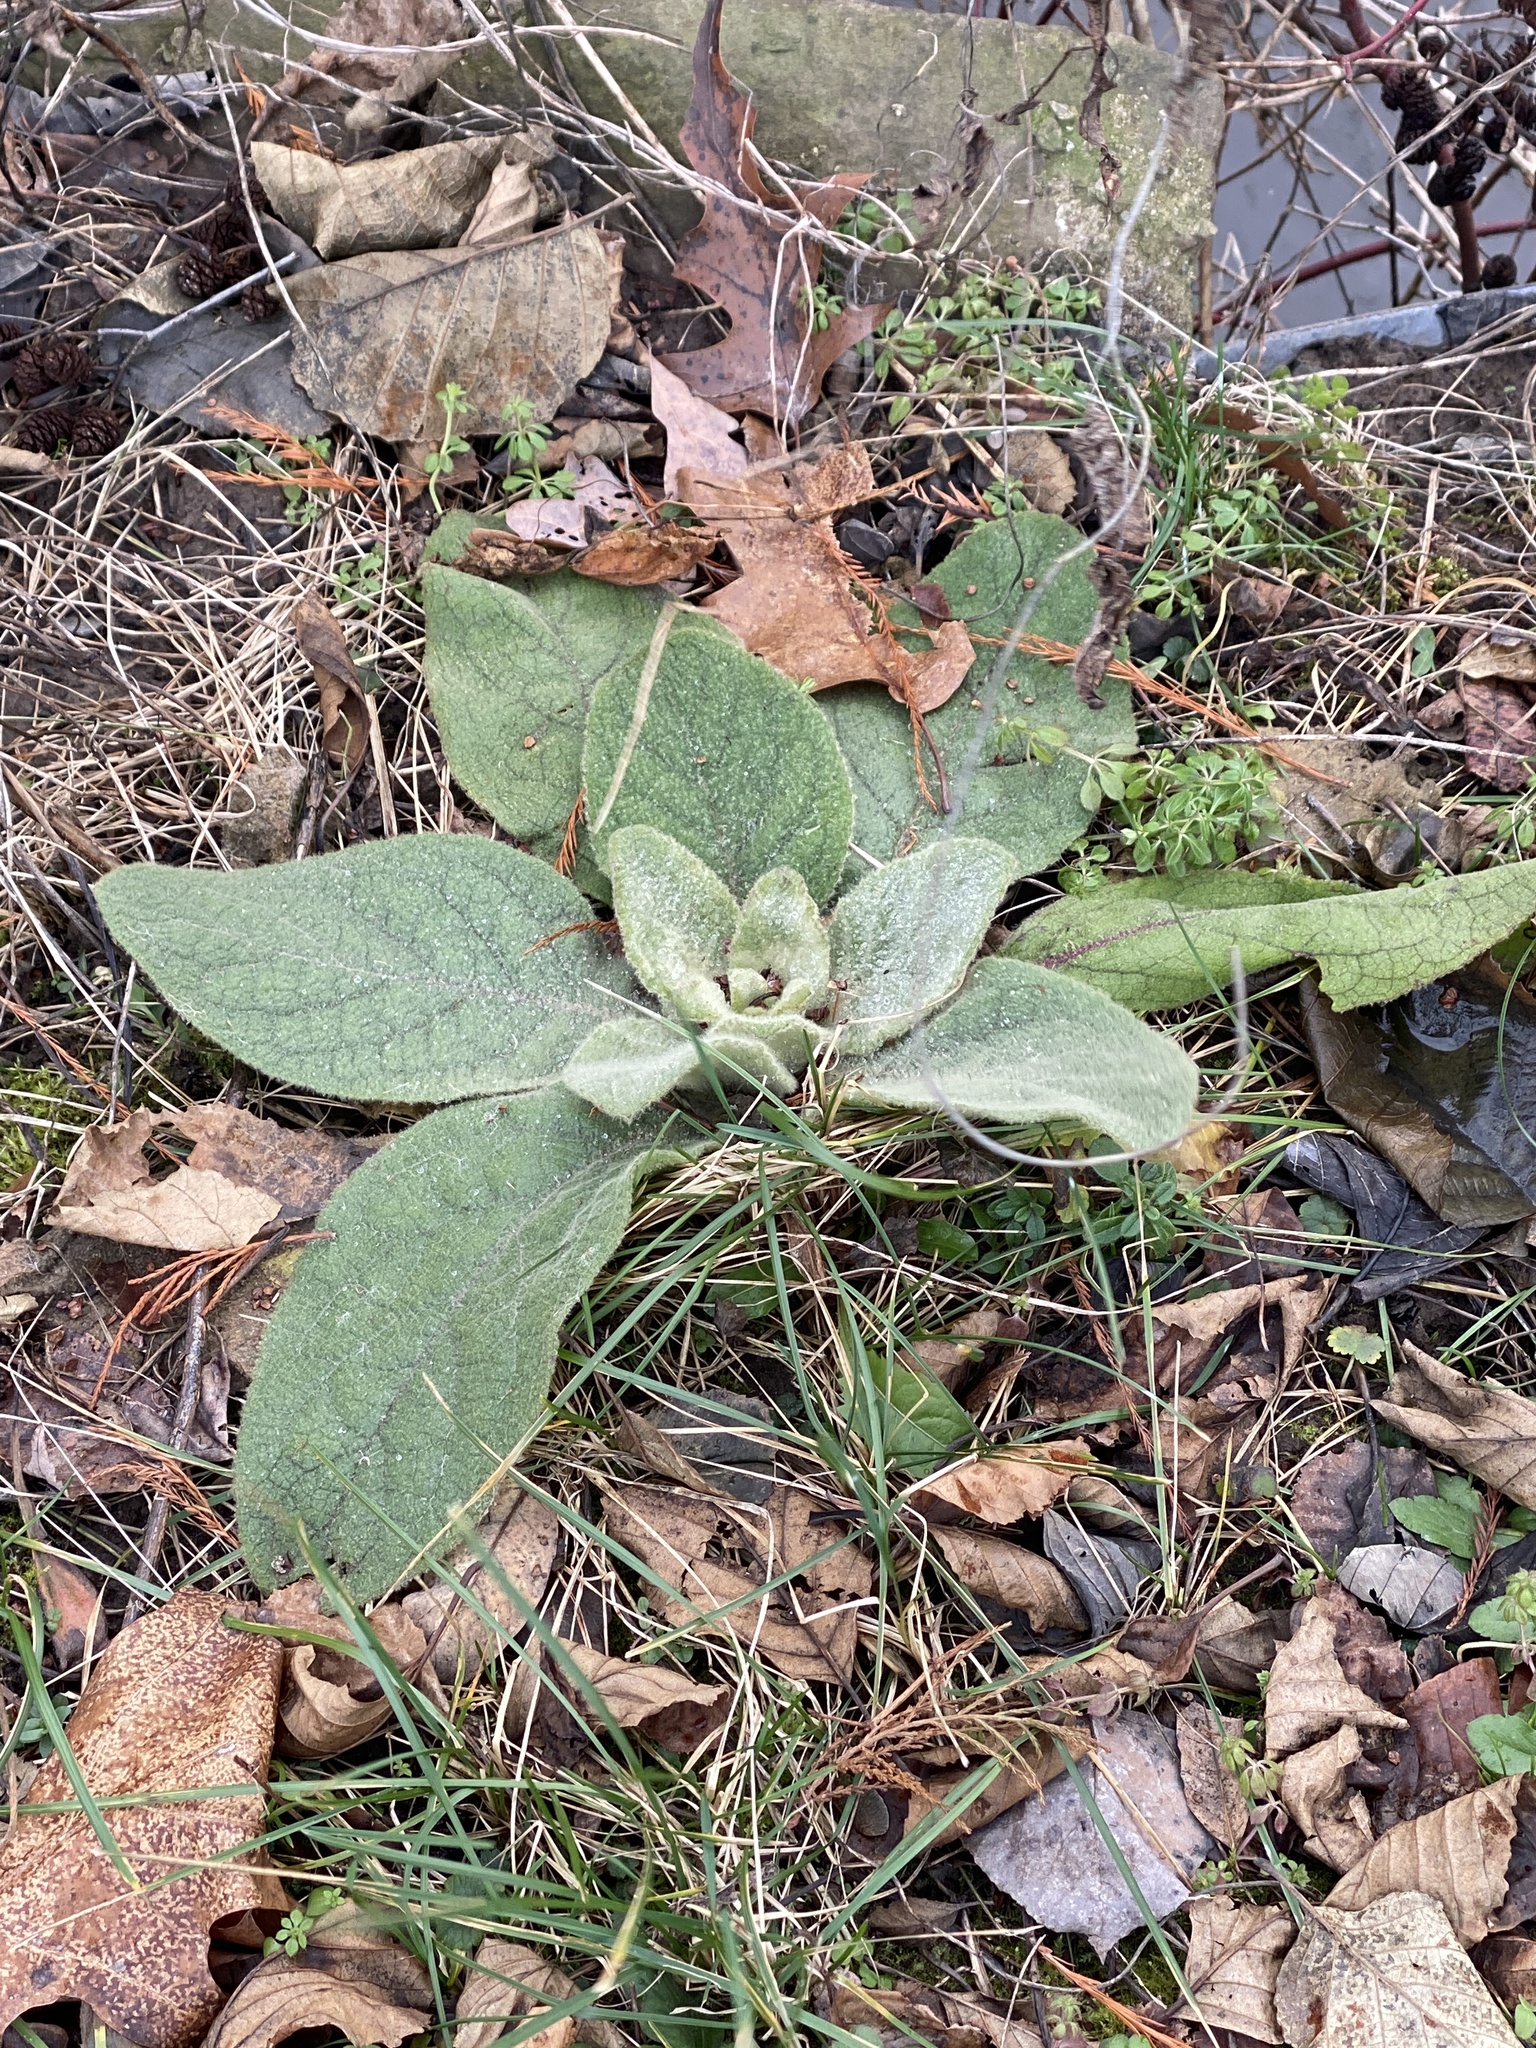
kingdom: Plantae
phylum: Tracheophyta
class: Magnoliopsida
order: Lamiales
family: Scrophulariaceae
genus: Verbascum
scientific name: Verbascum thapsus
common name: Common mullein
